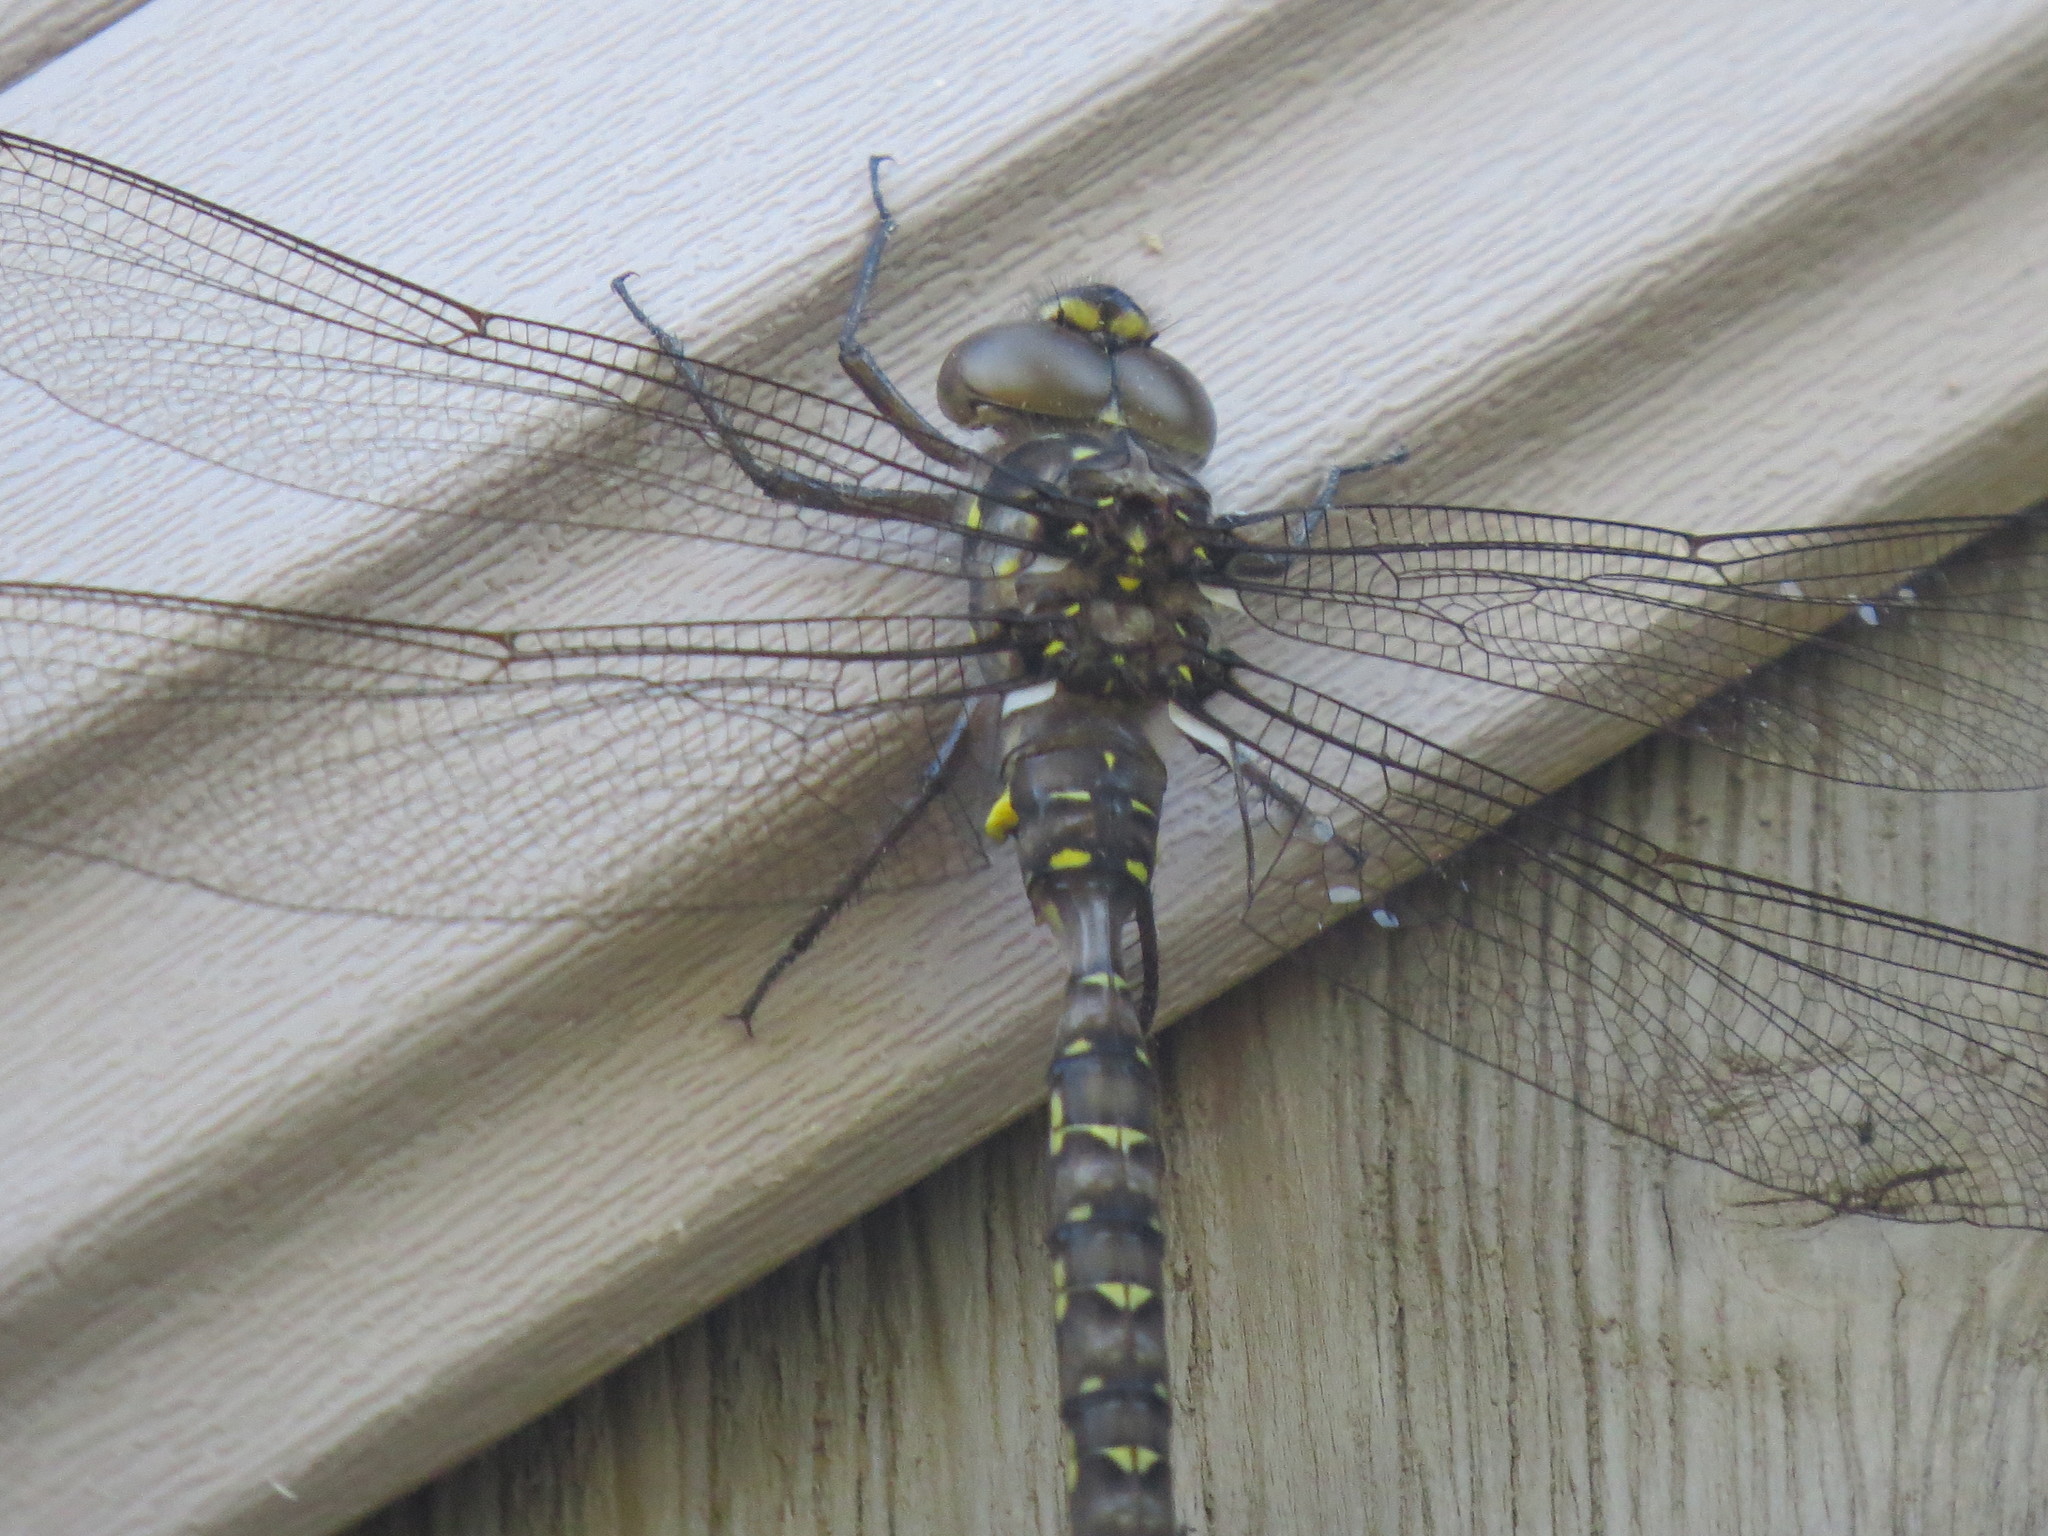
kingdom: Animalia
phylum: Arthropoda
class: Insecta
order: Odonata
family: Aeshnidae
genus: Boyeria
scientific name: Boyeria grafiana
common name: Ocellated darner
